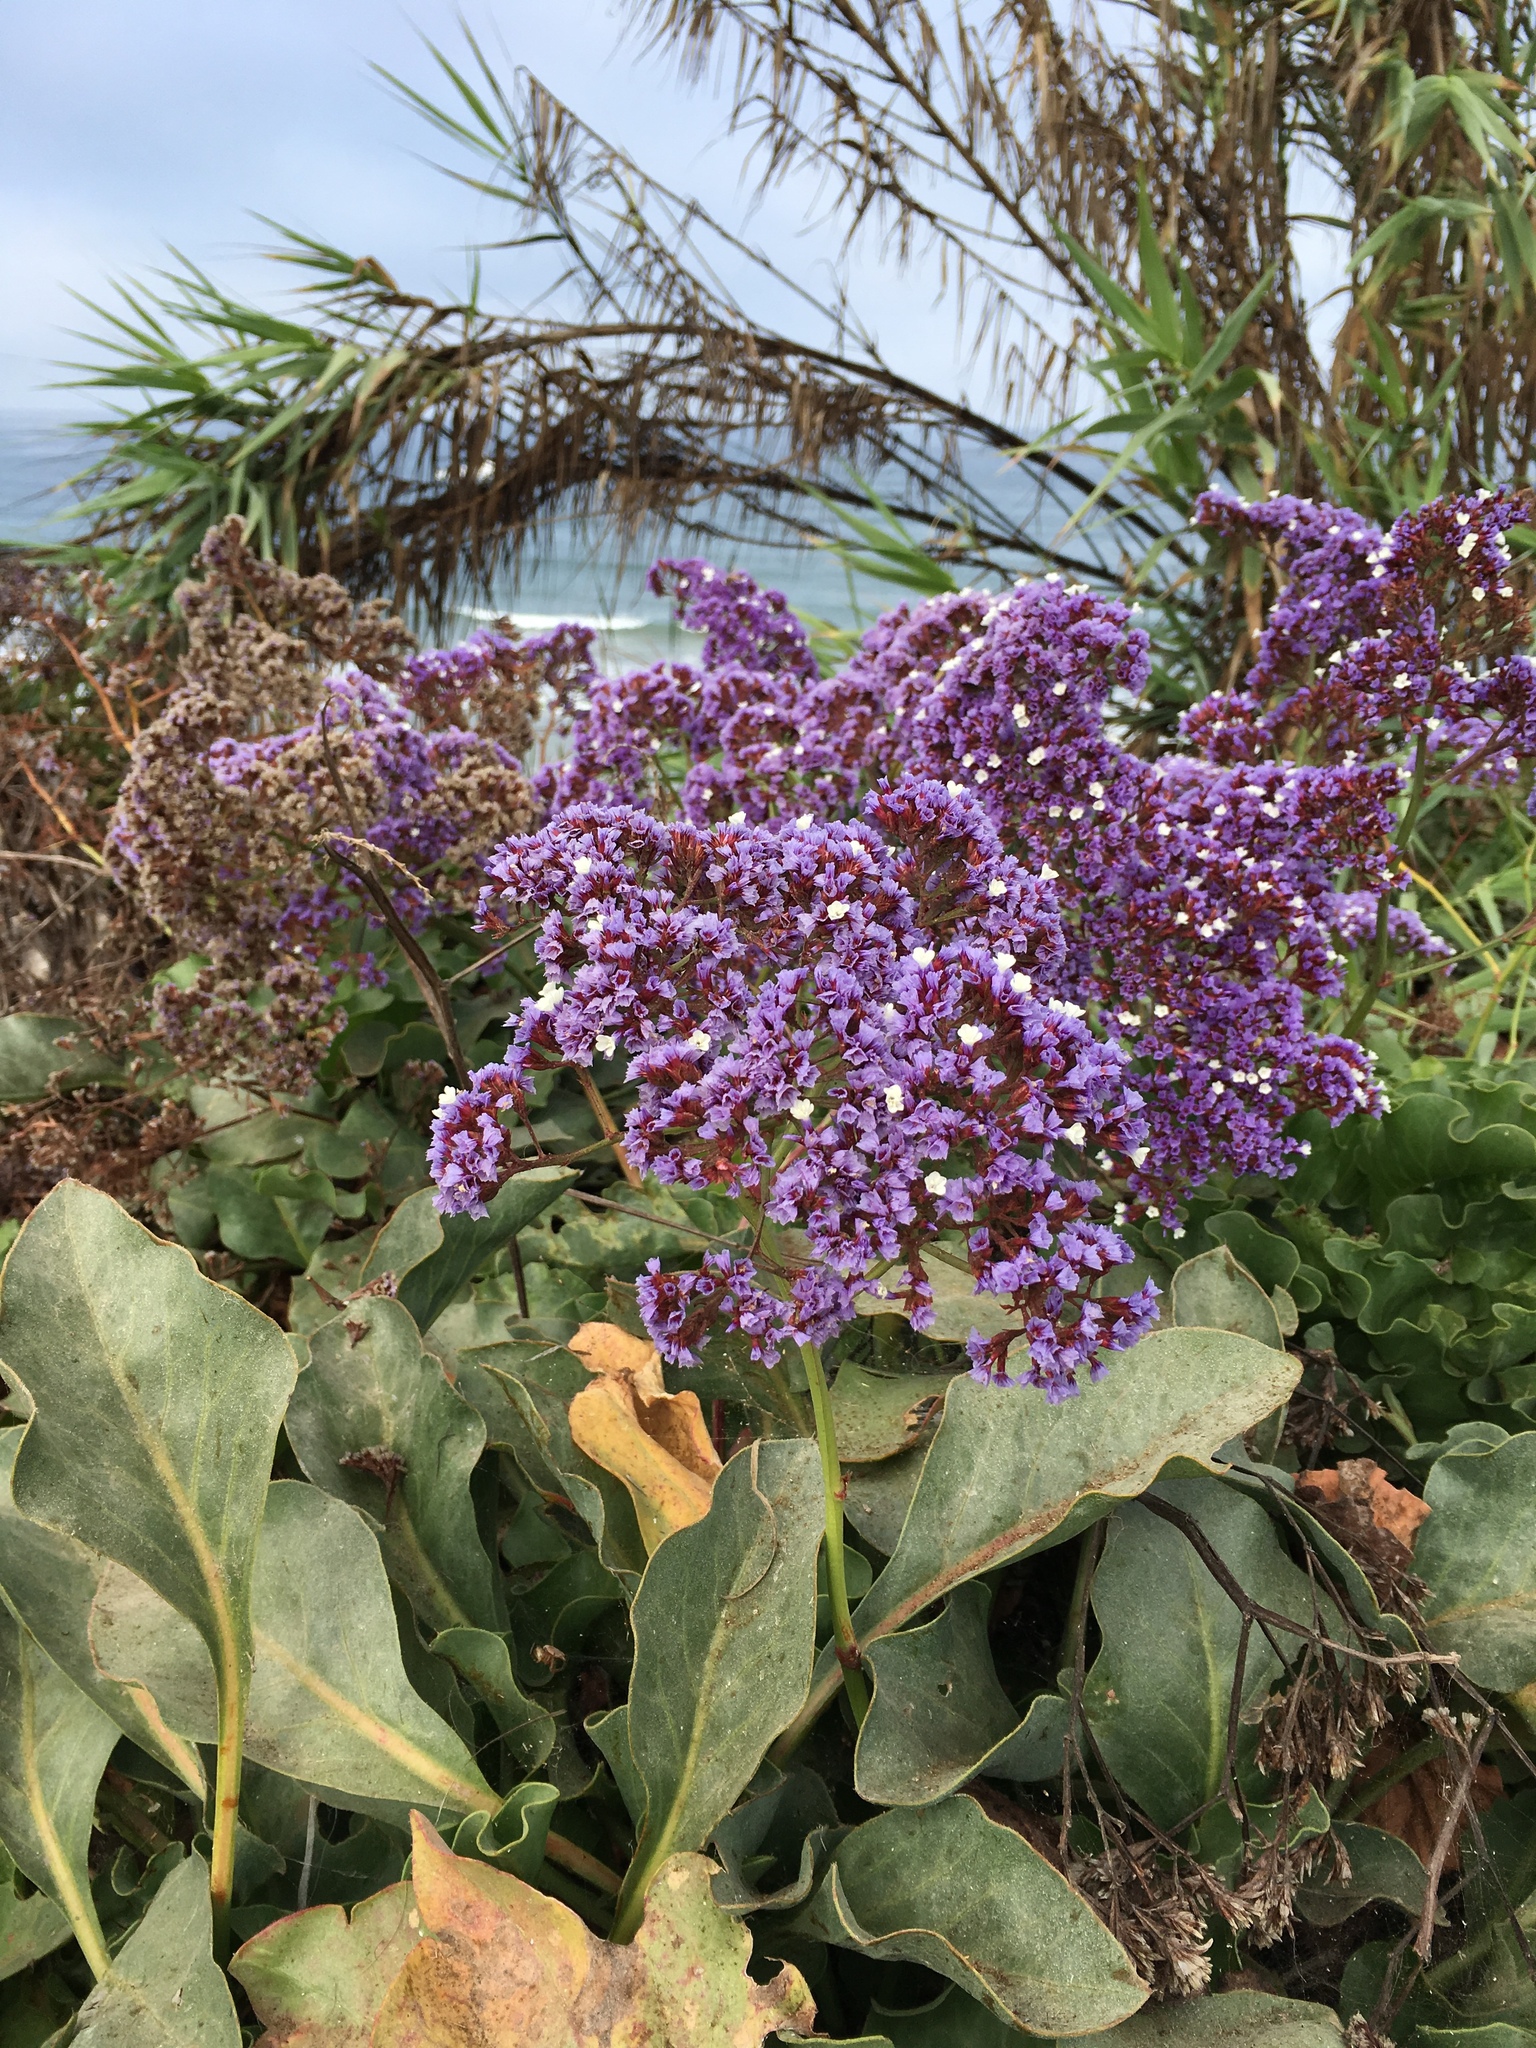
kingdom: Plantae
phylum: Tracheophyta
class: Magnoliopsida
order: Caryophyllales
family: Plumbaginaceae
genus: Limonium
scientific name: Limonium perezii
